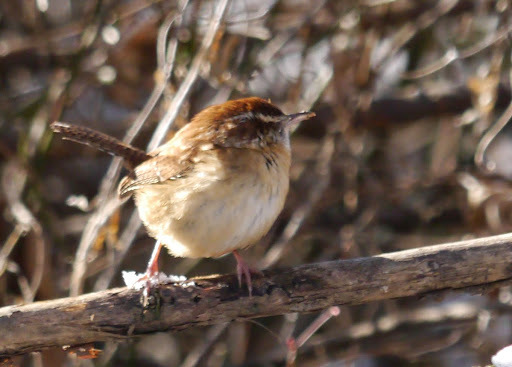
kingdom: Animalia
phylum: Chordata
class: Aves
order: Passeriformes
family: Troglodytidae
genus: Thryothorus
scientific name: Thryothorus ludovicianus
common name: Carolina wren
